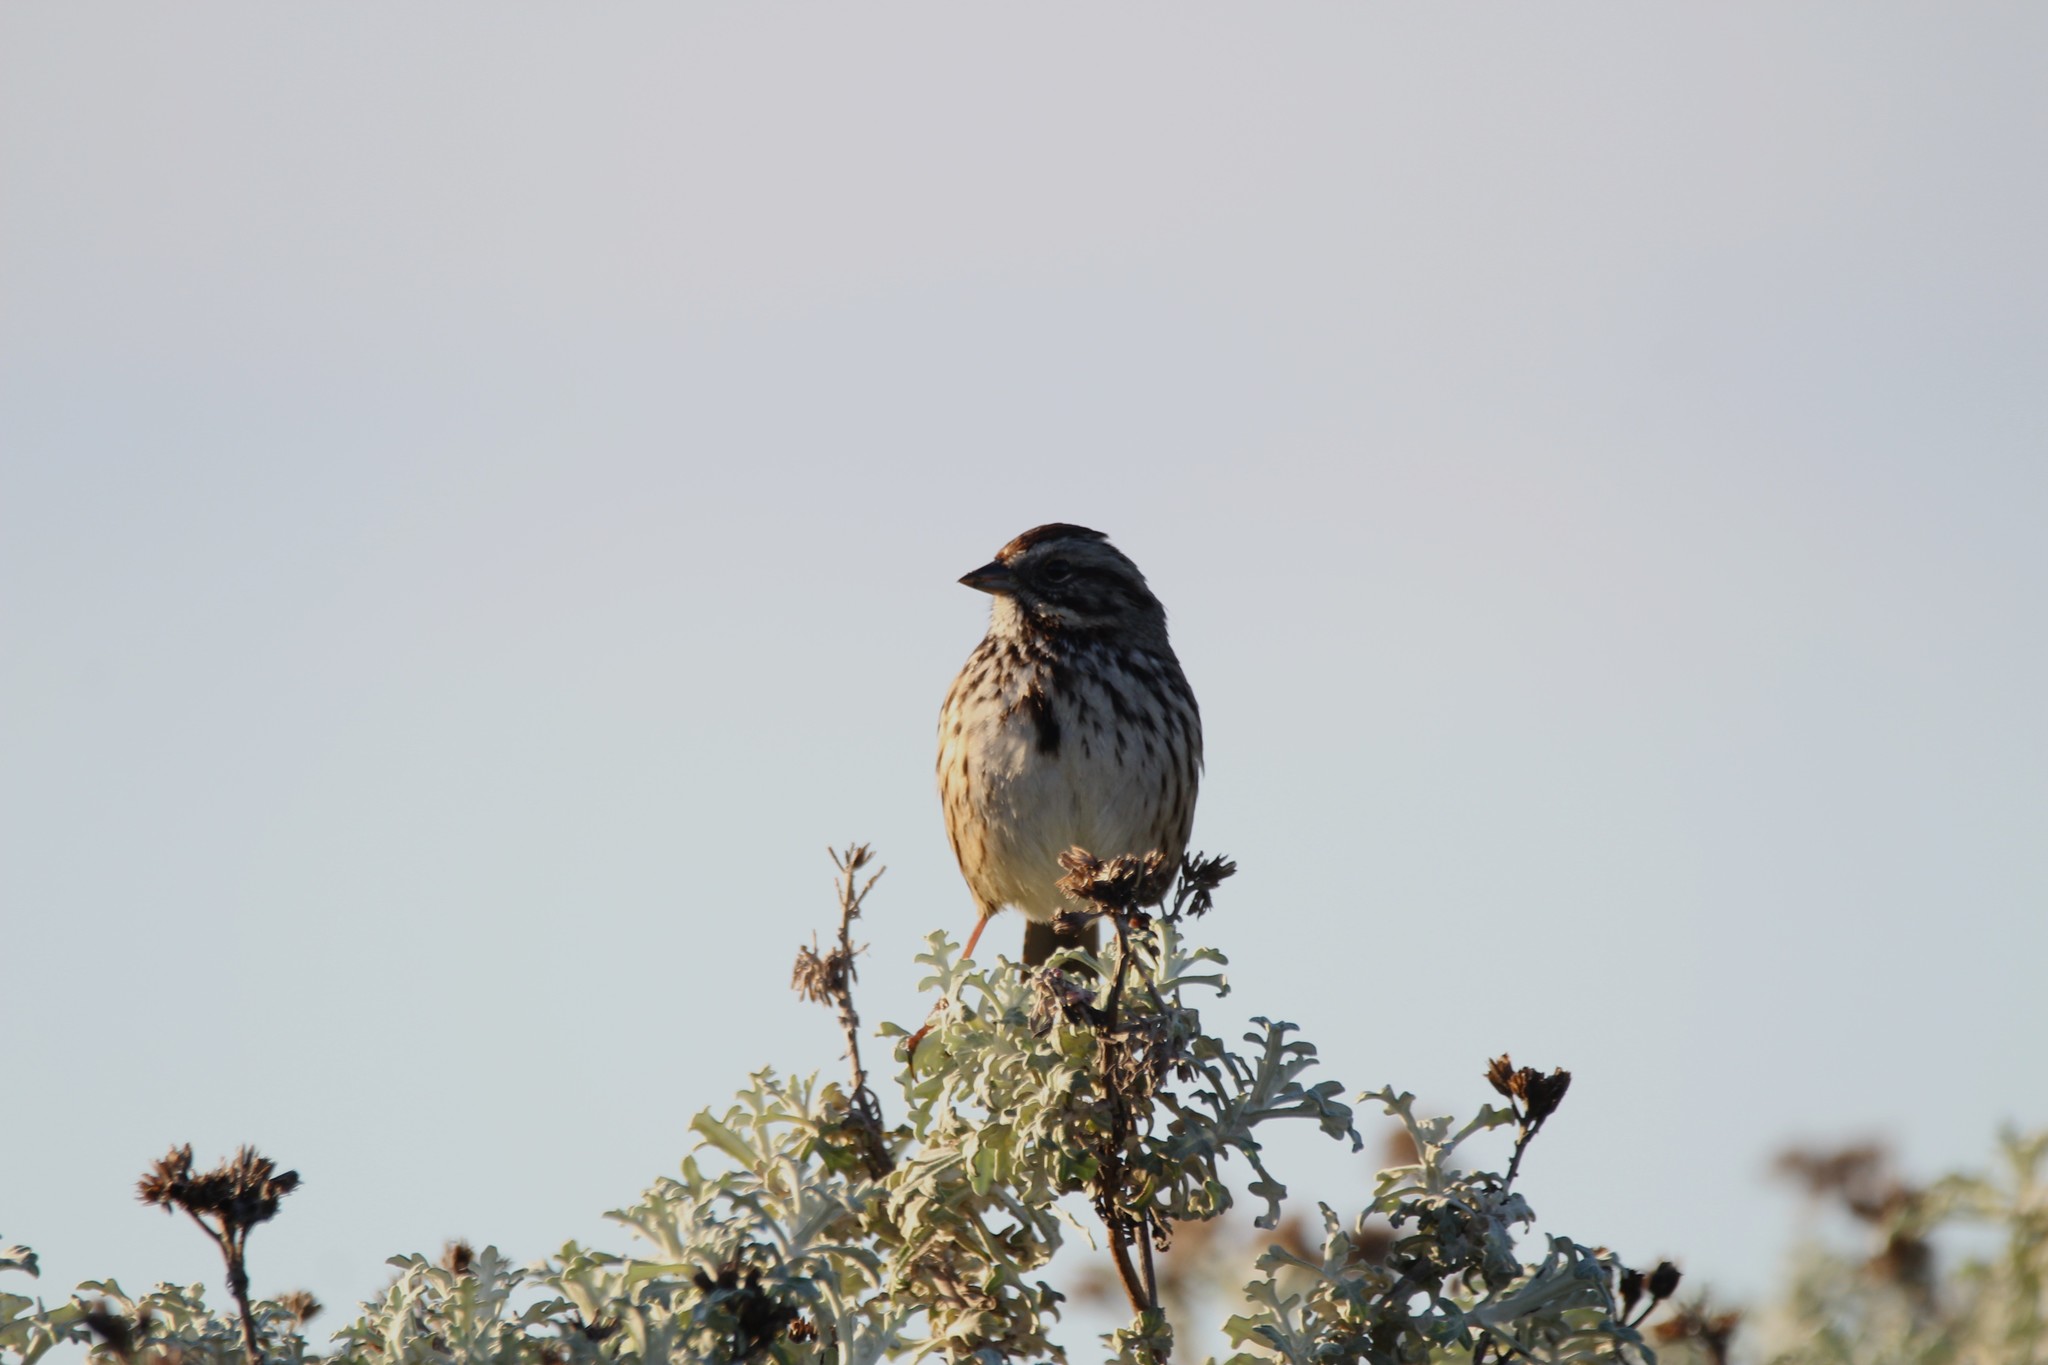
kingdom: Animalia
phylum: Chordata
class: Aves
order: Passeriformes
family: Passerellidae
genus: Melospiza
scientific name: Melospiza melodia
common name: Song sparrow
